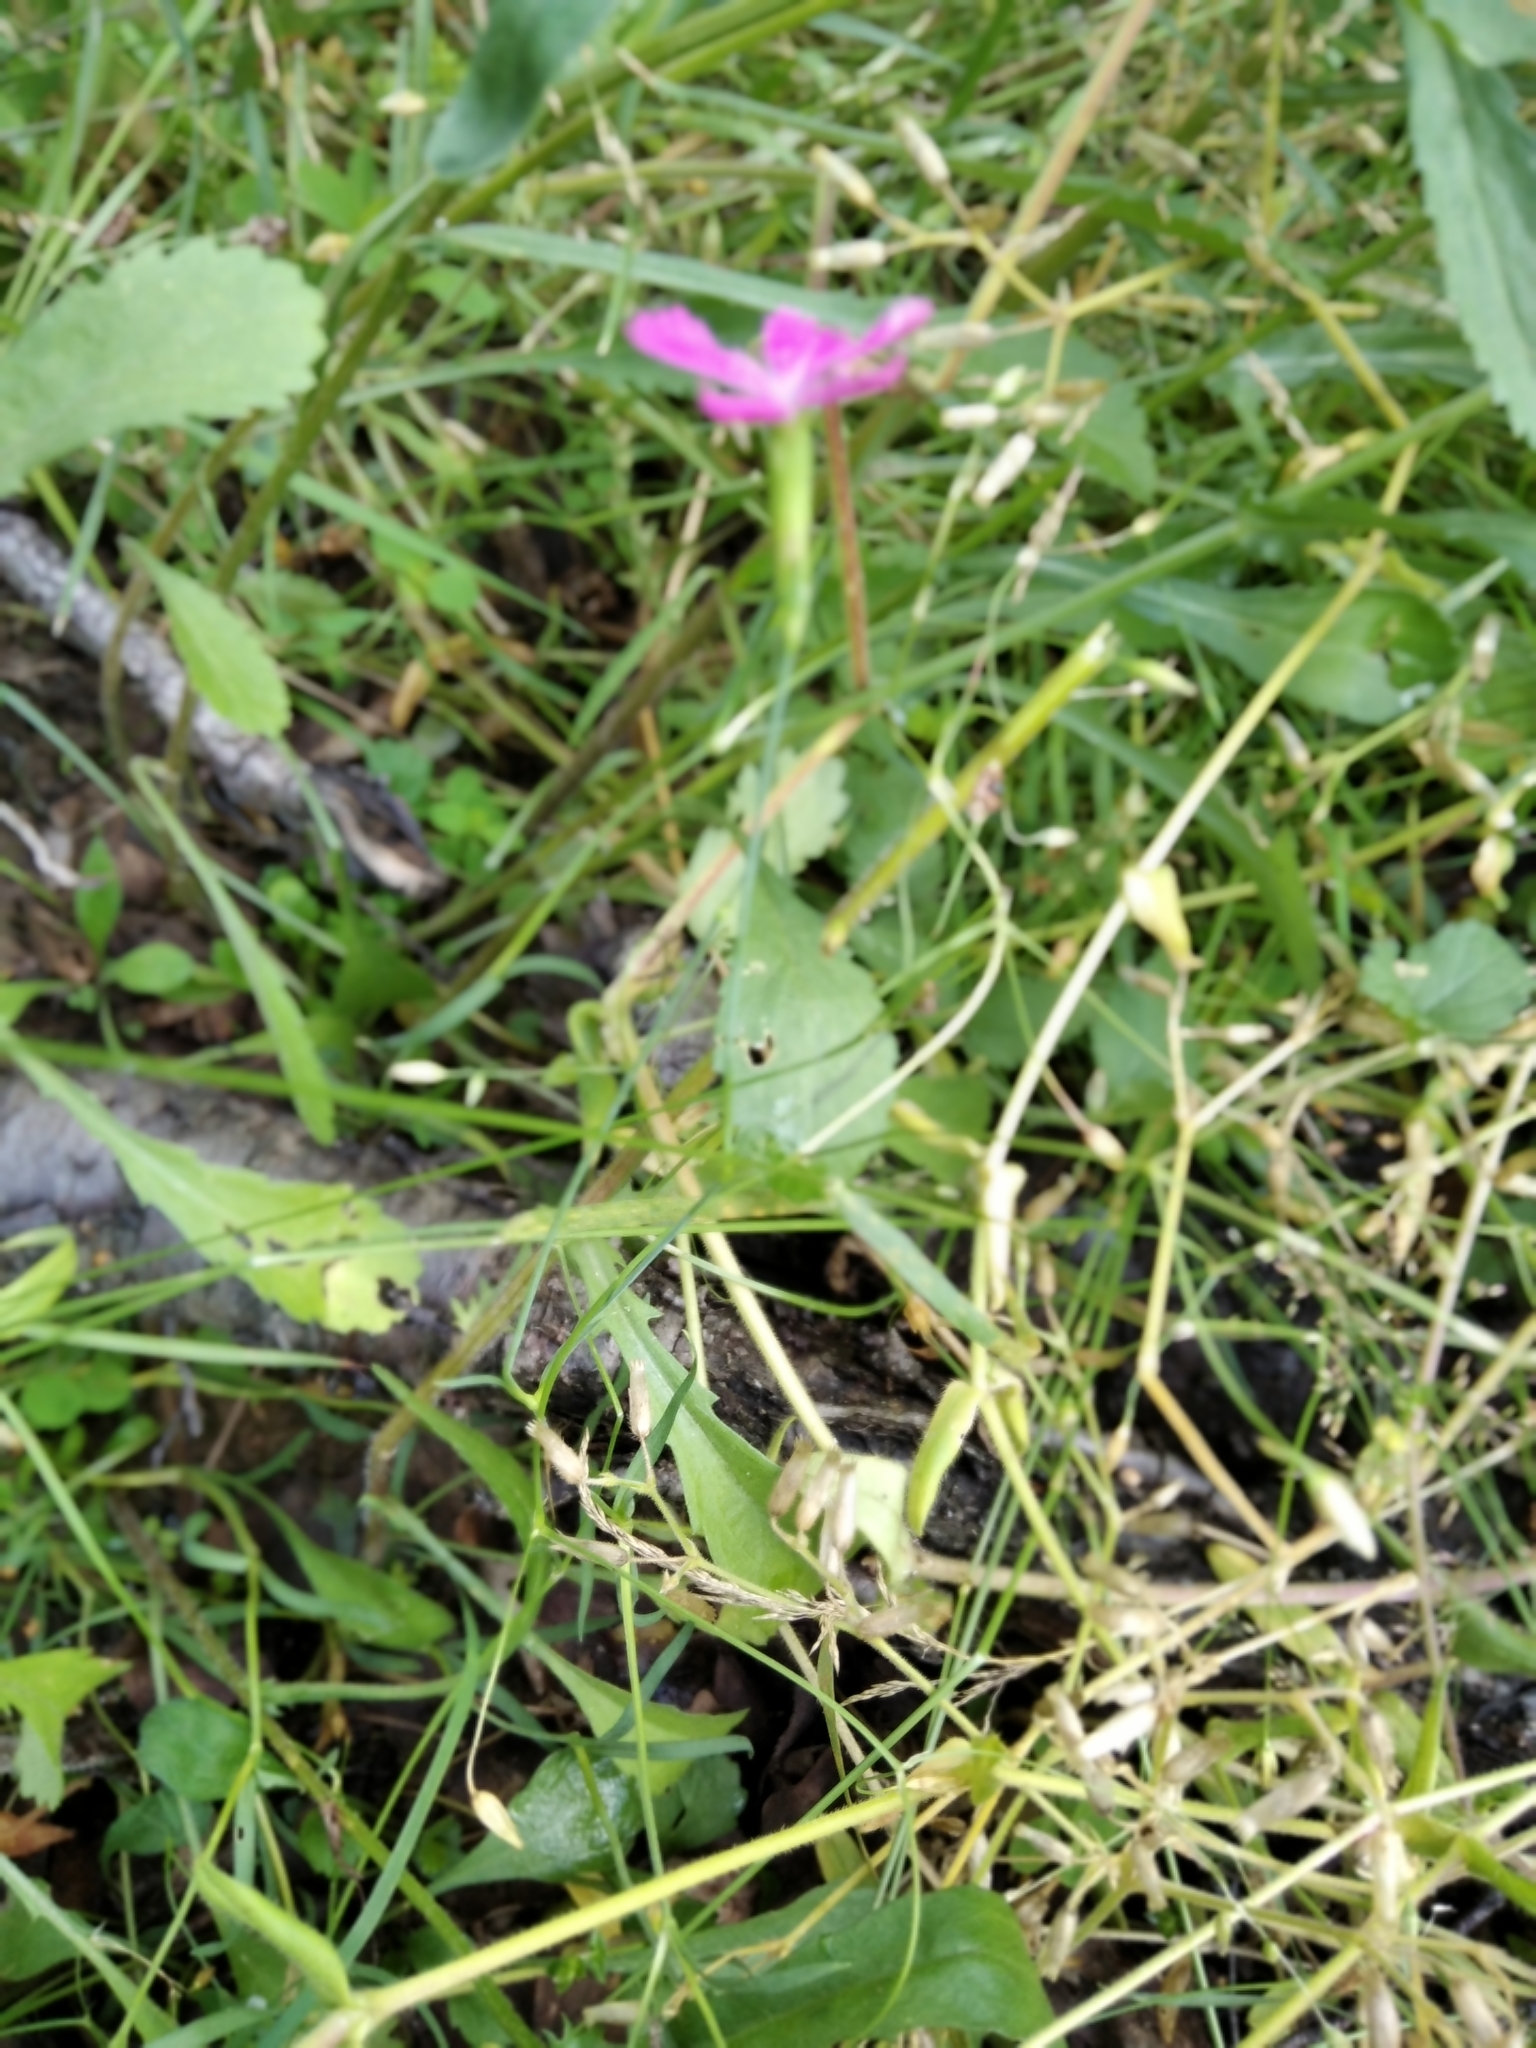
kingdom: Plantae
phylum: Tracheophyta
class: Magnoliopsida
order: Caryophyllales
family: Caryophyllaceae
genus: Dianthus
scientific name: Dianthus deltoides
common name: Maiden pink
